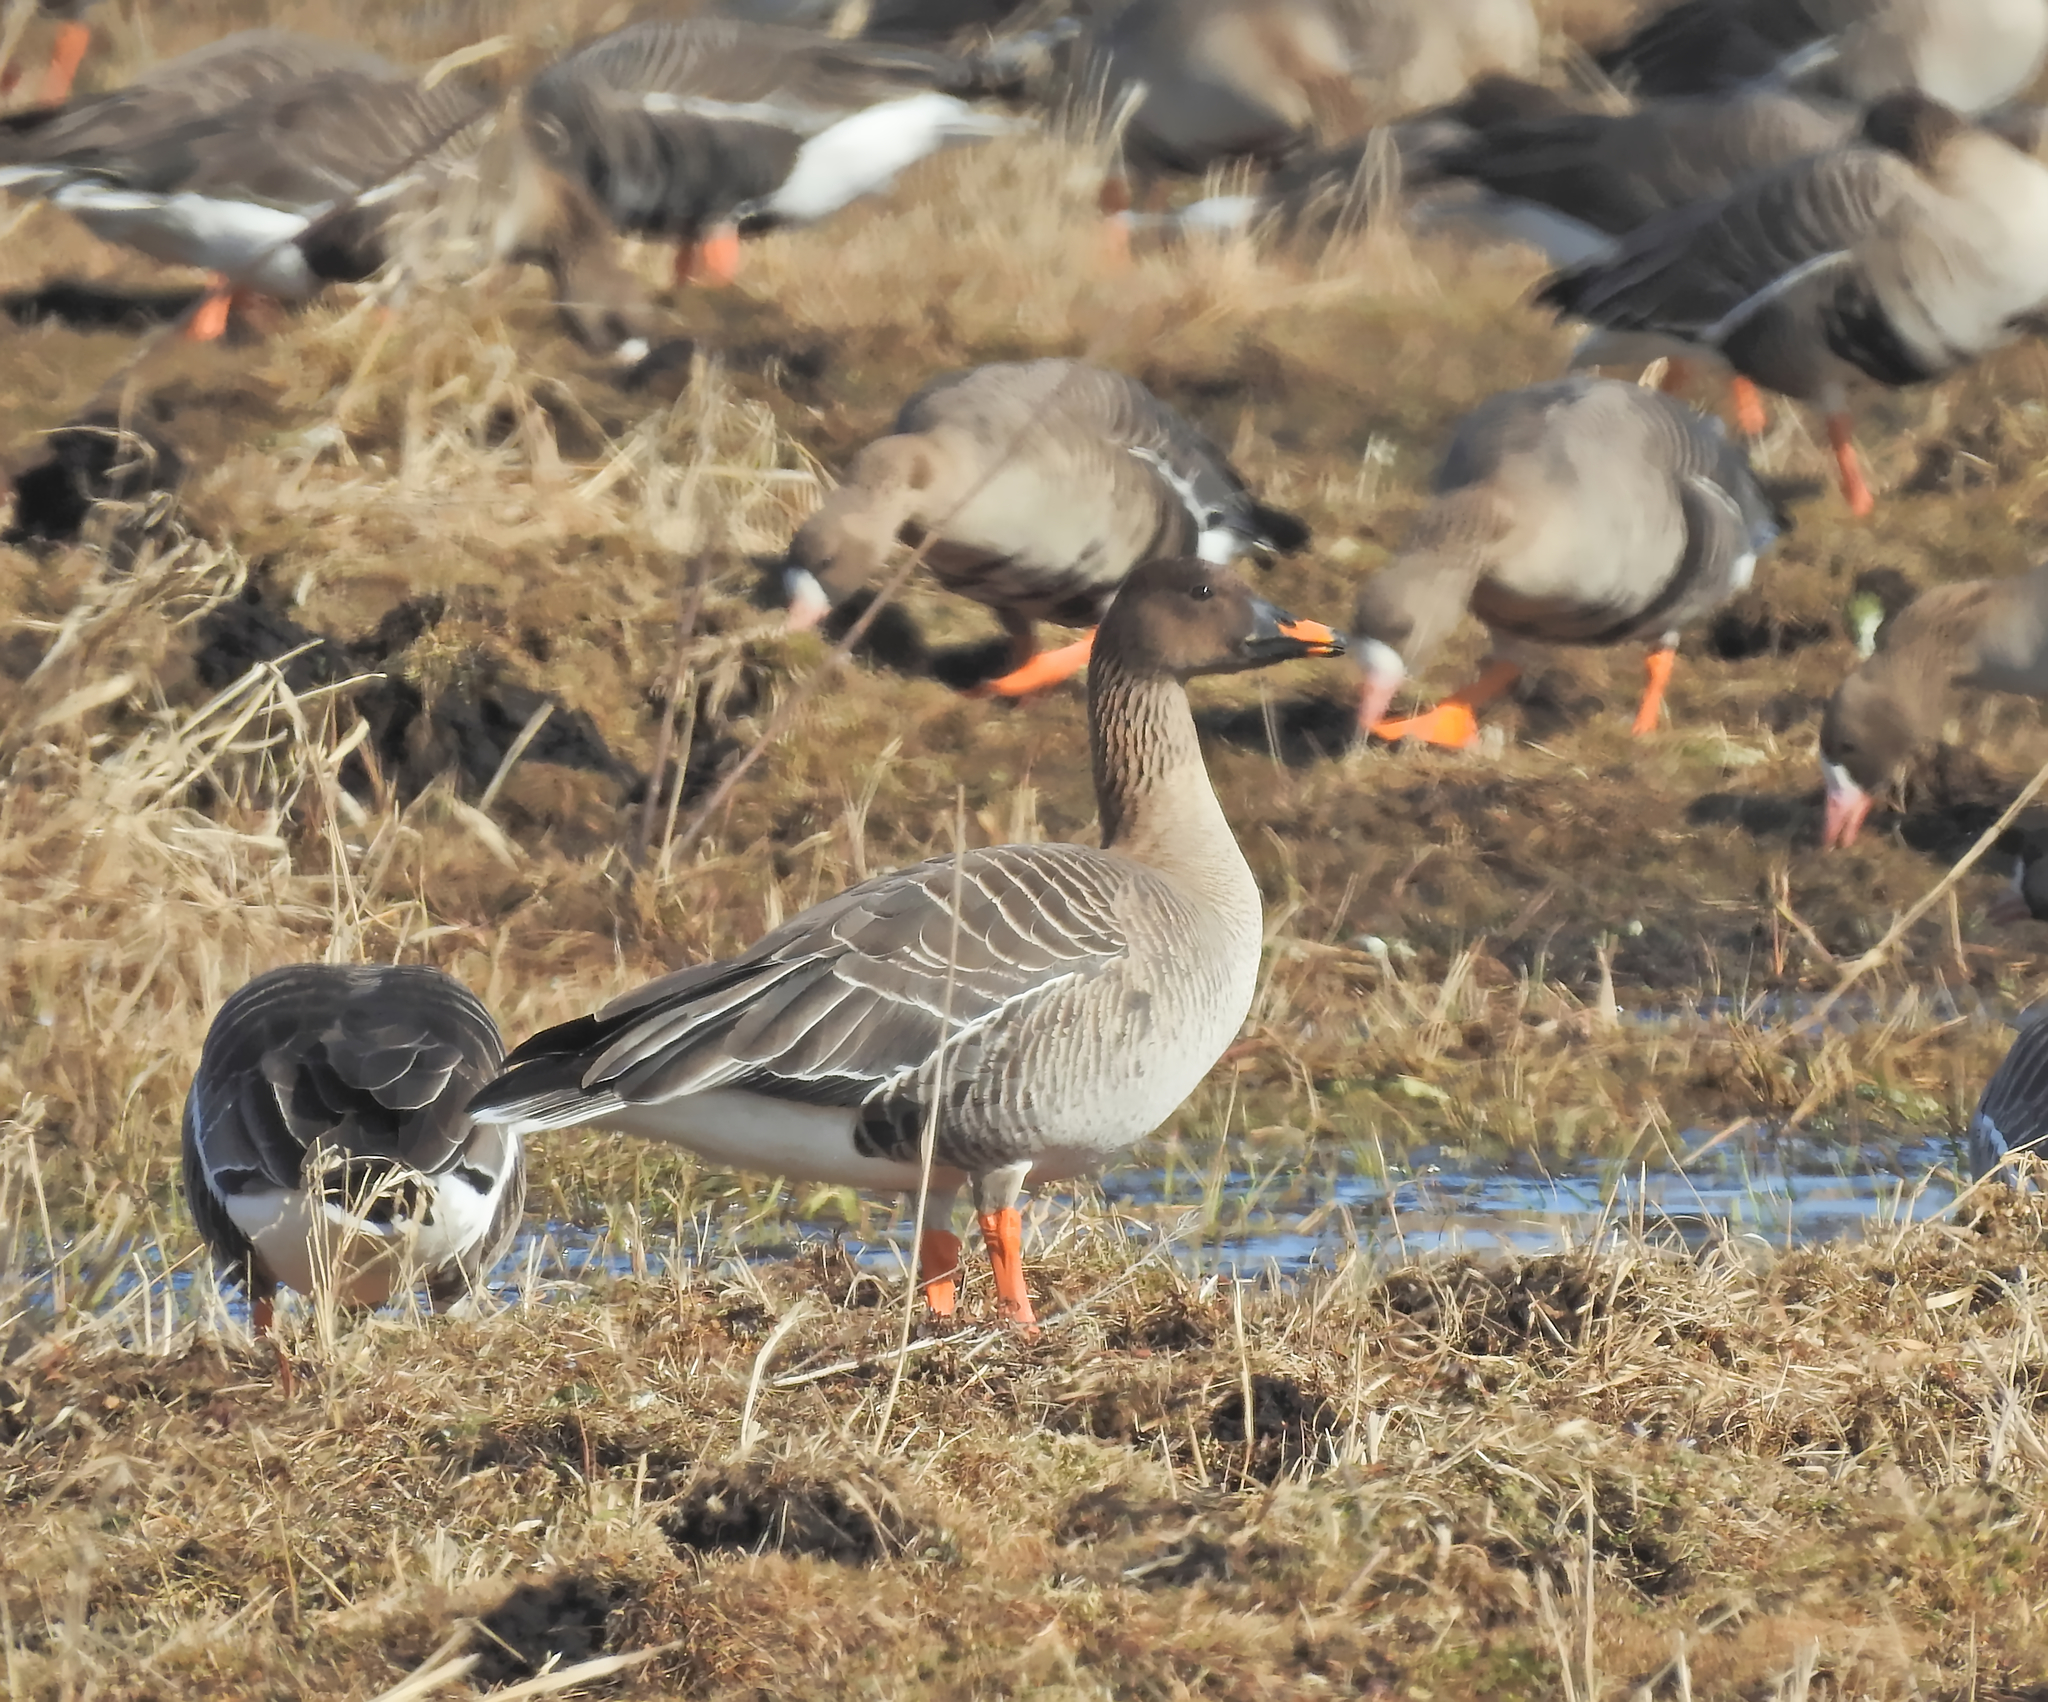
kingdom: Animalia
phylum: Chordata
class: Aves
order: Anseriformes
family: Anatidae
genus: Anser
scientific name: Anser serrirostris
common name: Tundra bean goose
